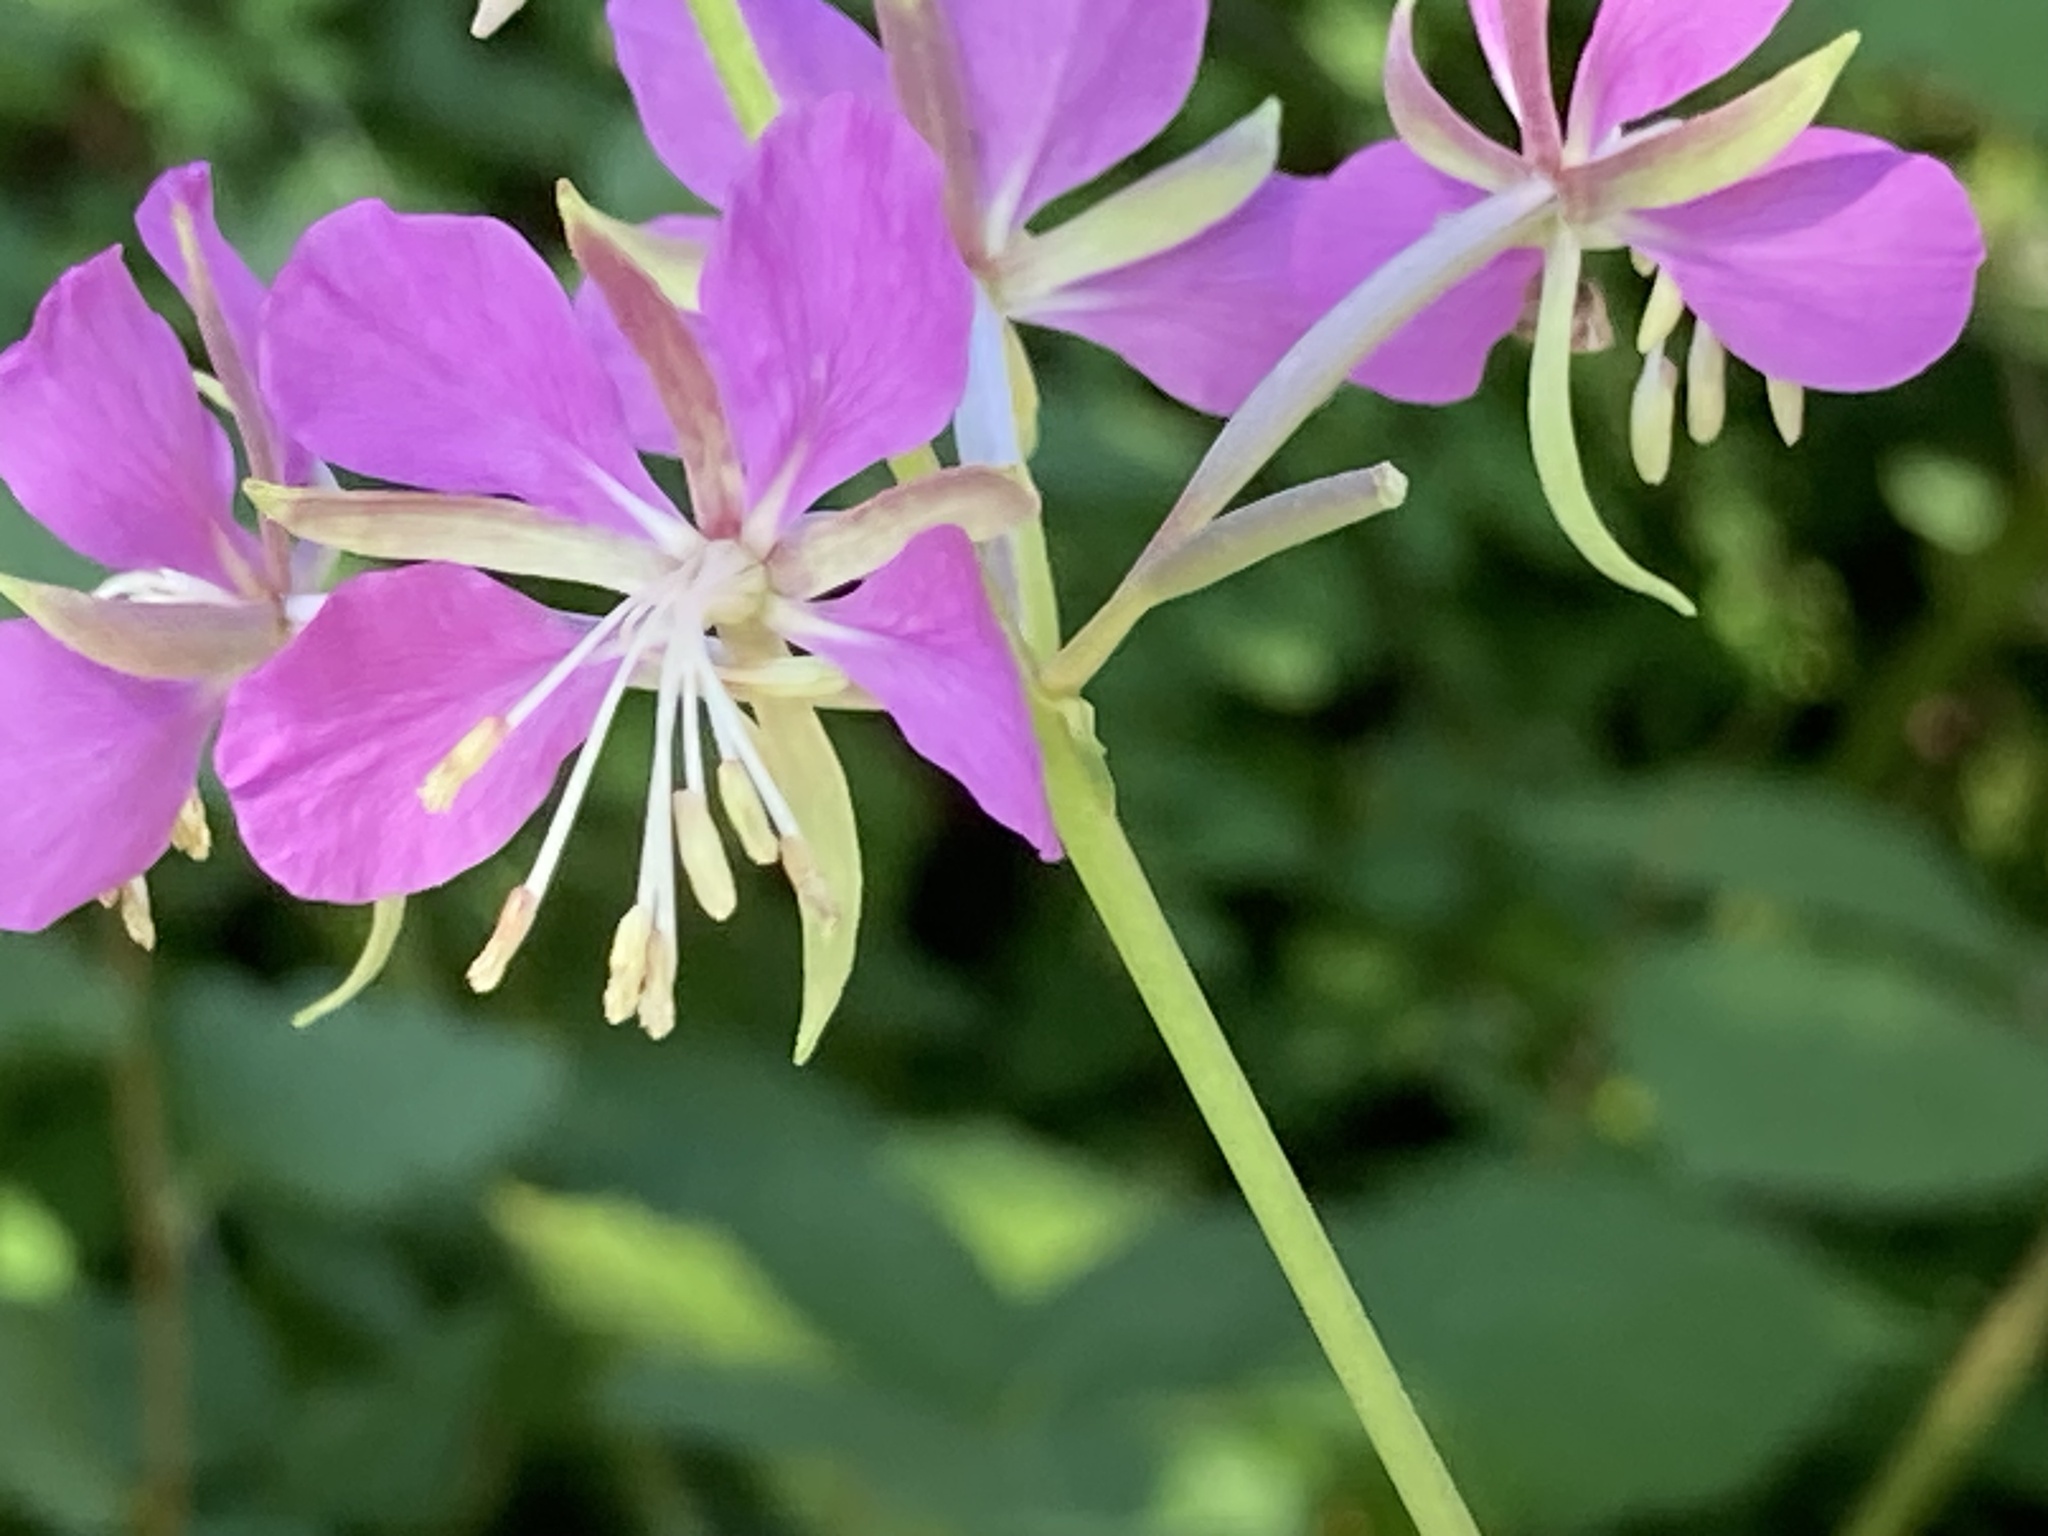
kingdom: Plantae
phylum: Tracheophyta
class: Magnoliopsida
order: Myrtales
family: Onagraceae
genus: Chamaenerion
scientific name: Chamaenerion angustifolium
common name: Fireweed
